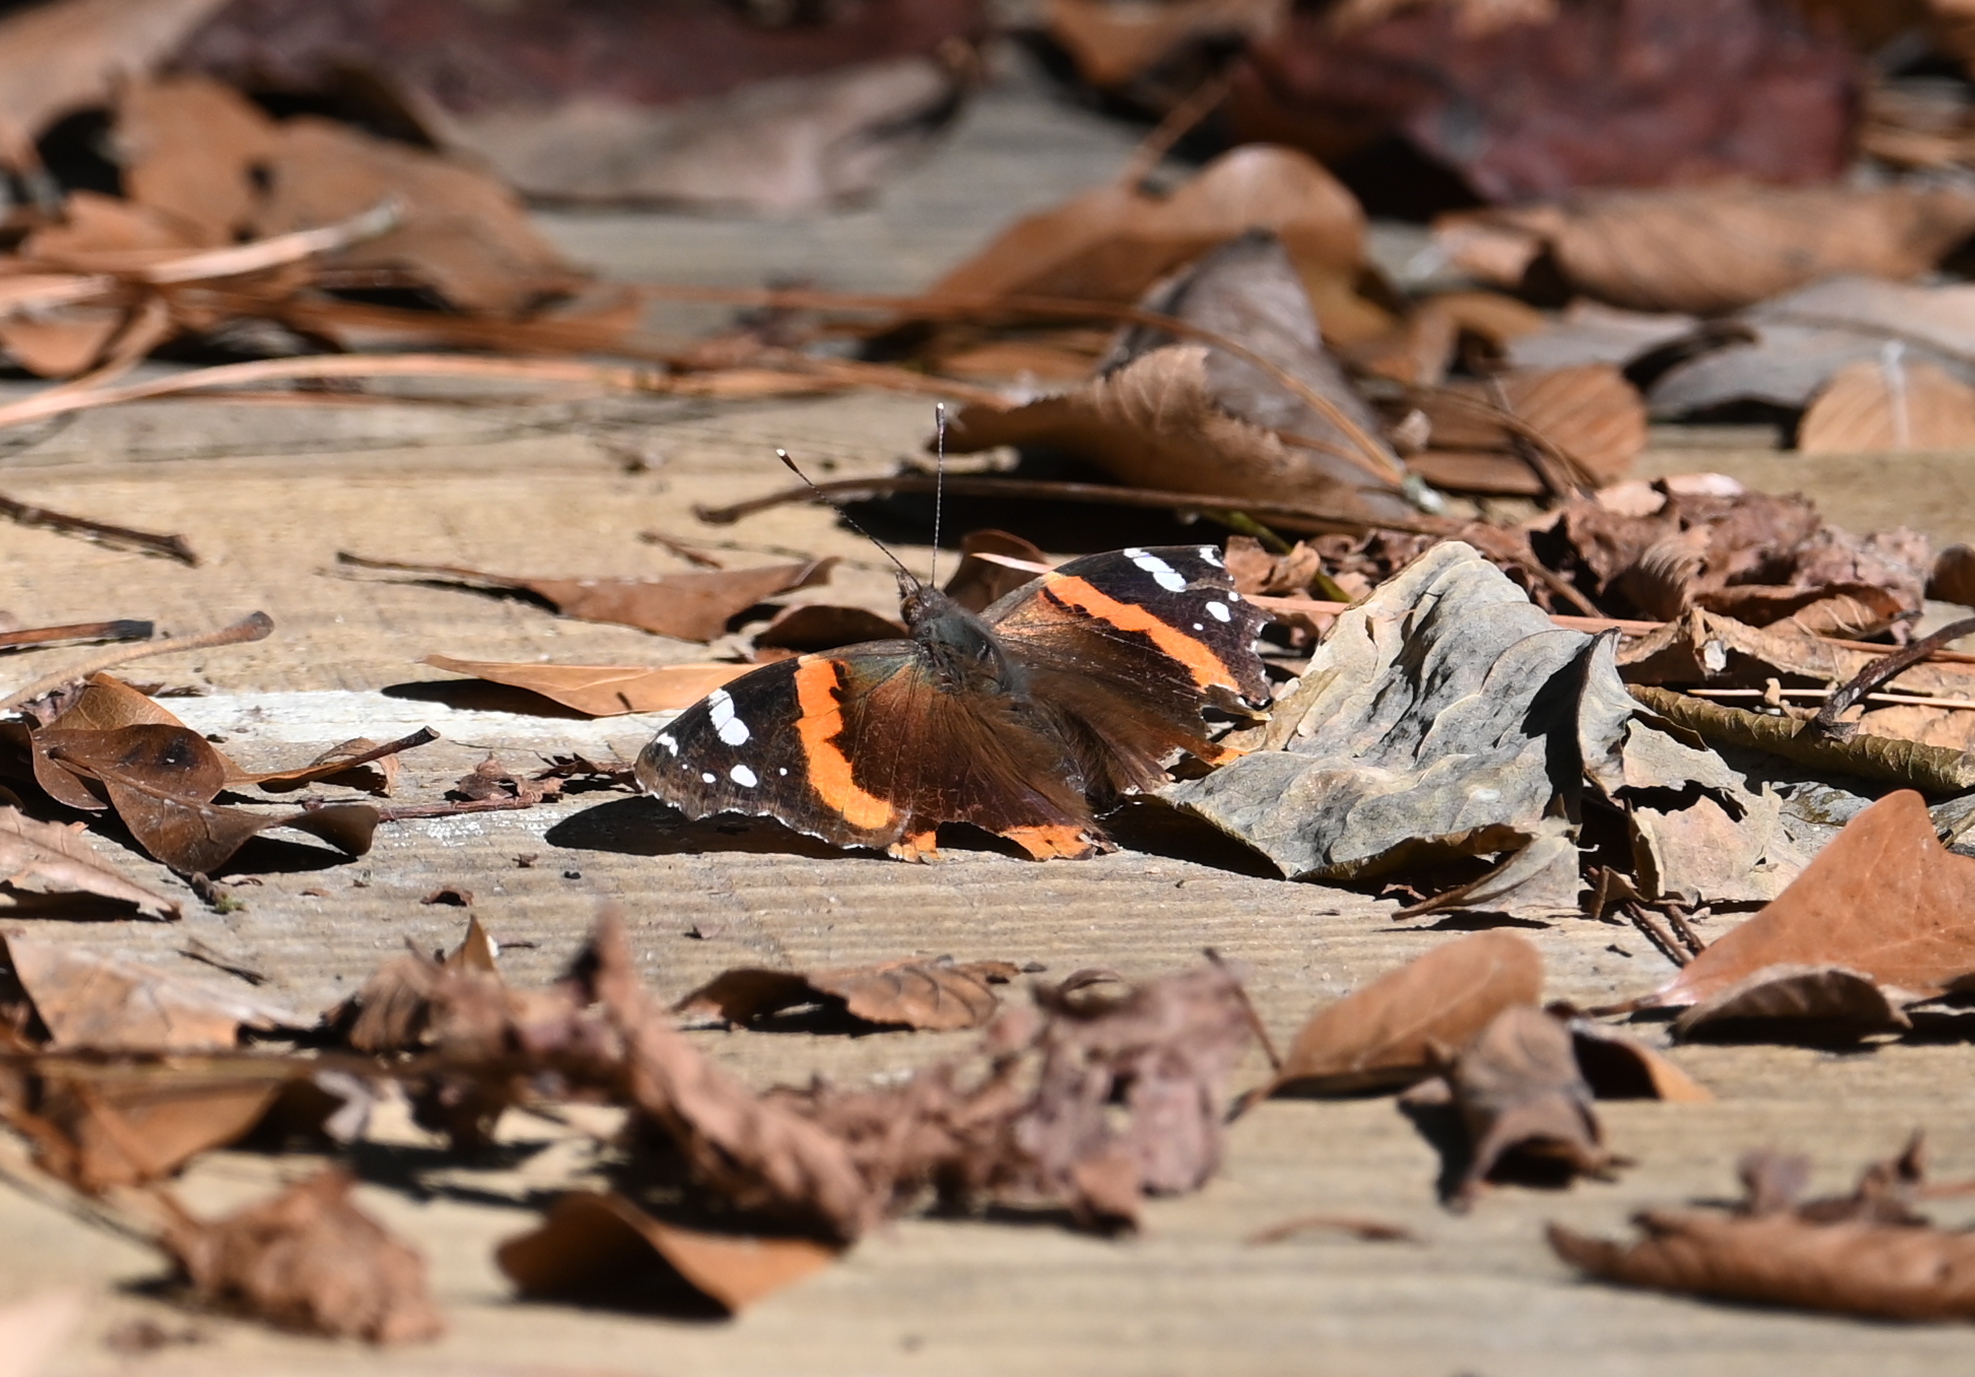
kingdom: Animalia
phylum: Arthropoda
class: Insecta
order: Lepidoptera
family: Nymphalidae
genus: Vanessa
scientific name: Vanessa atalanta
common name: Red admiral
